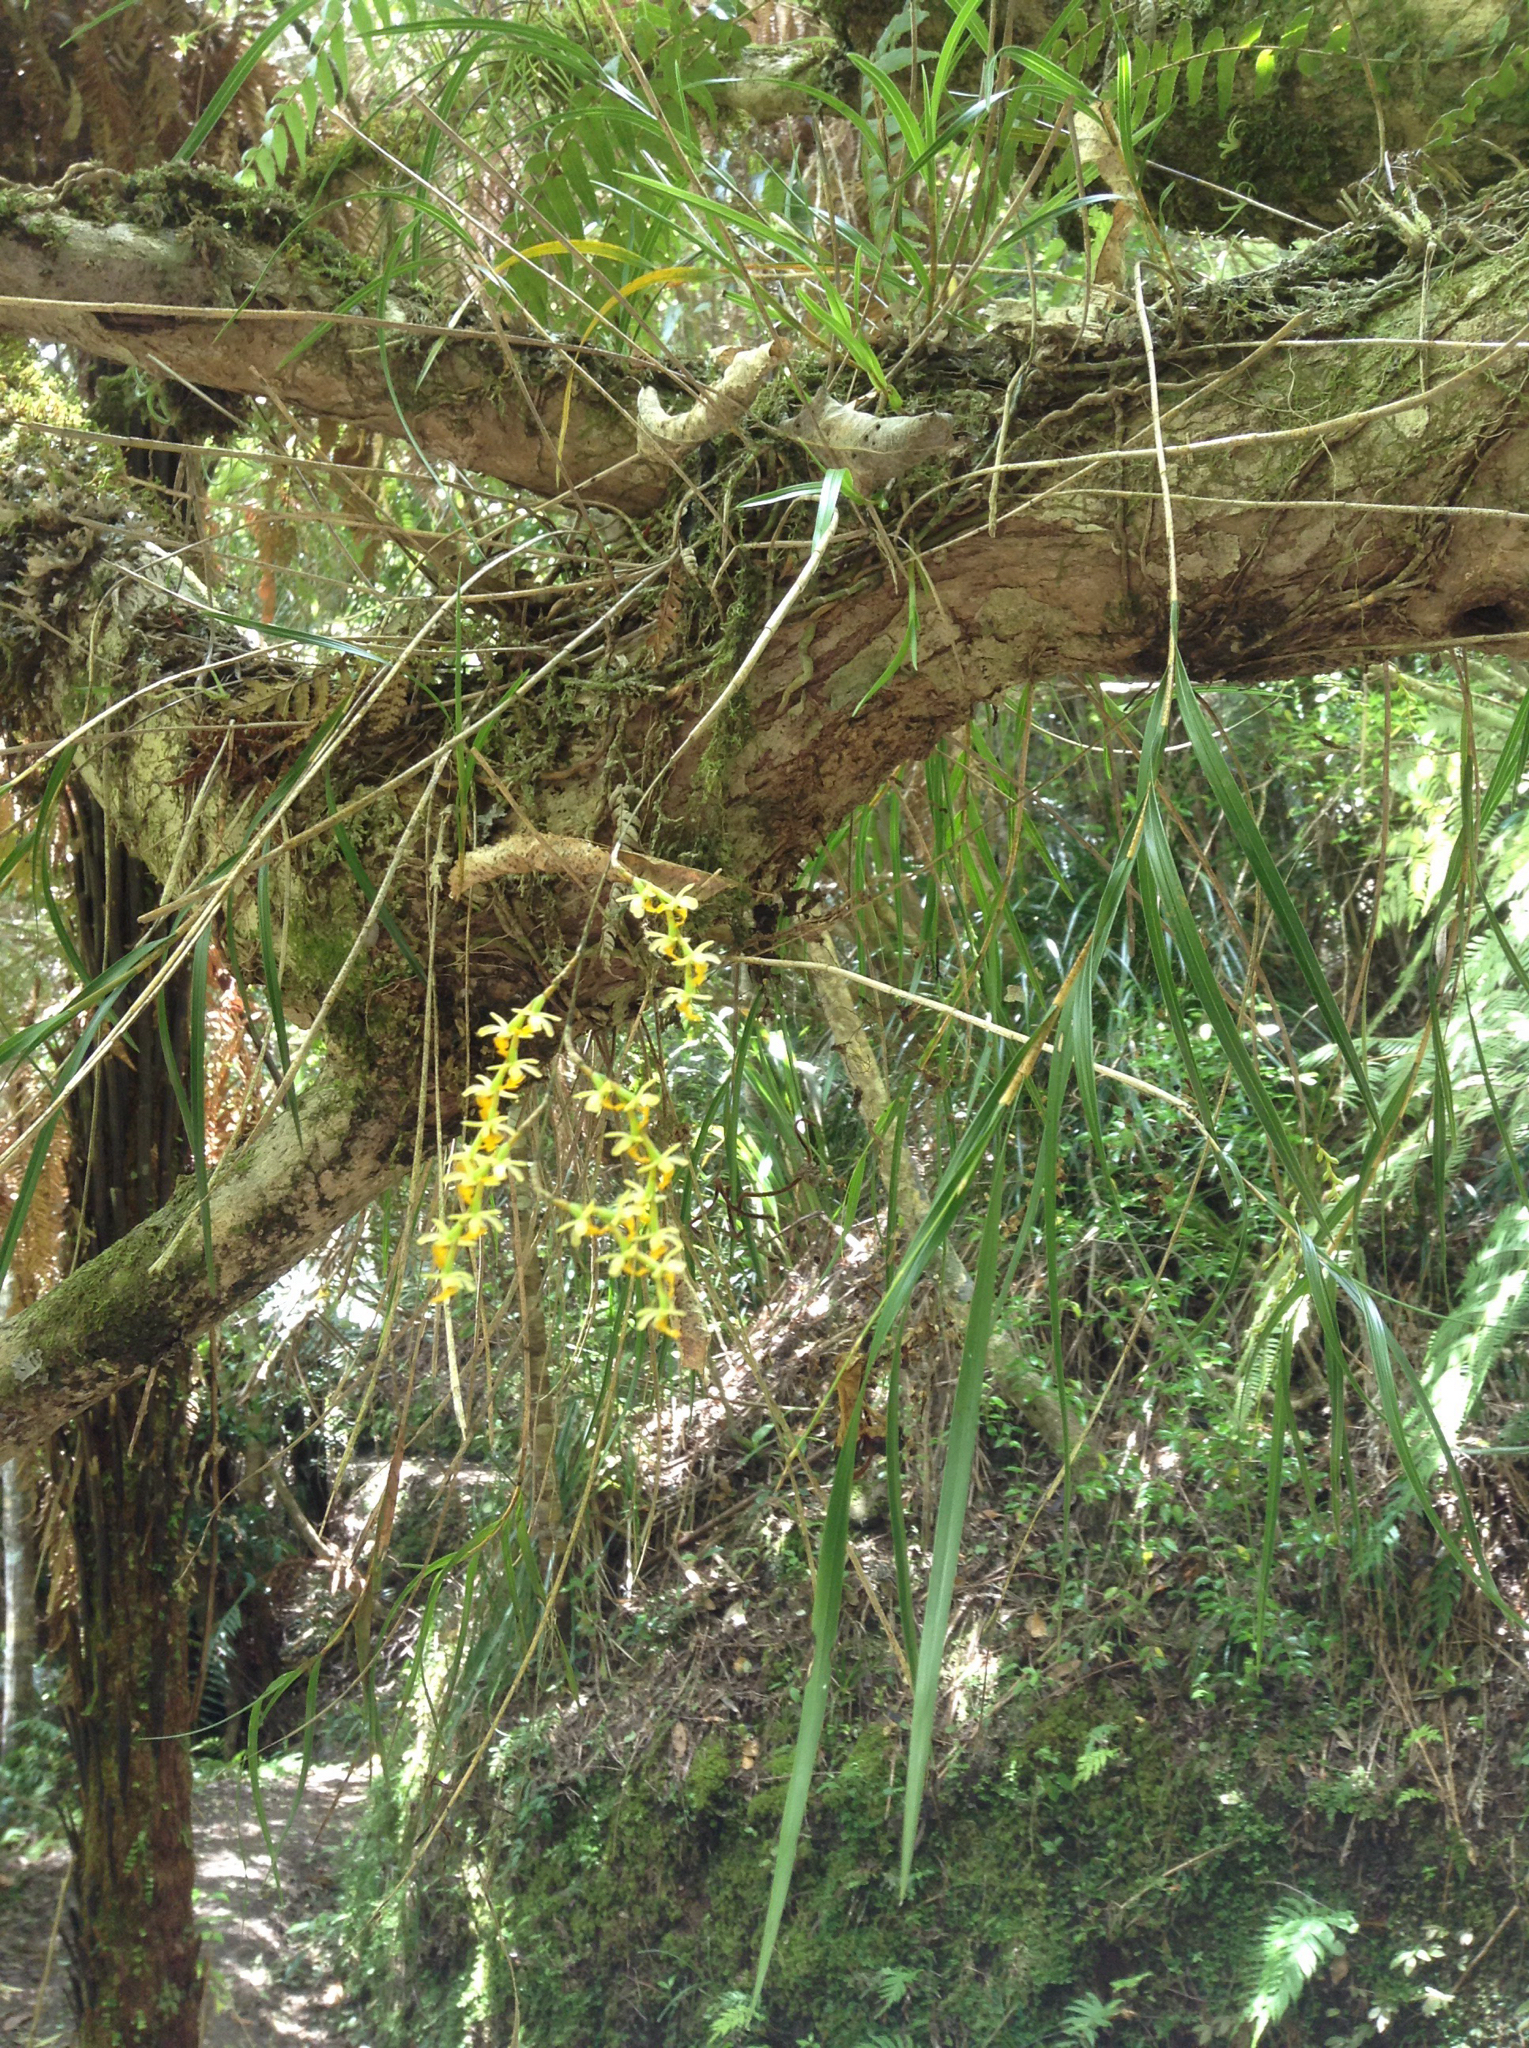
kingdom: Plantae
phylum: Tracheophyta
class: Liliopsida
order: Asparagales
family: Orchidaceae
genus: Earina
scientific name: Earina mucronata
